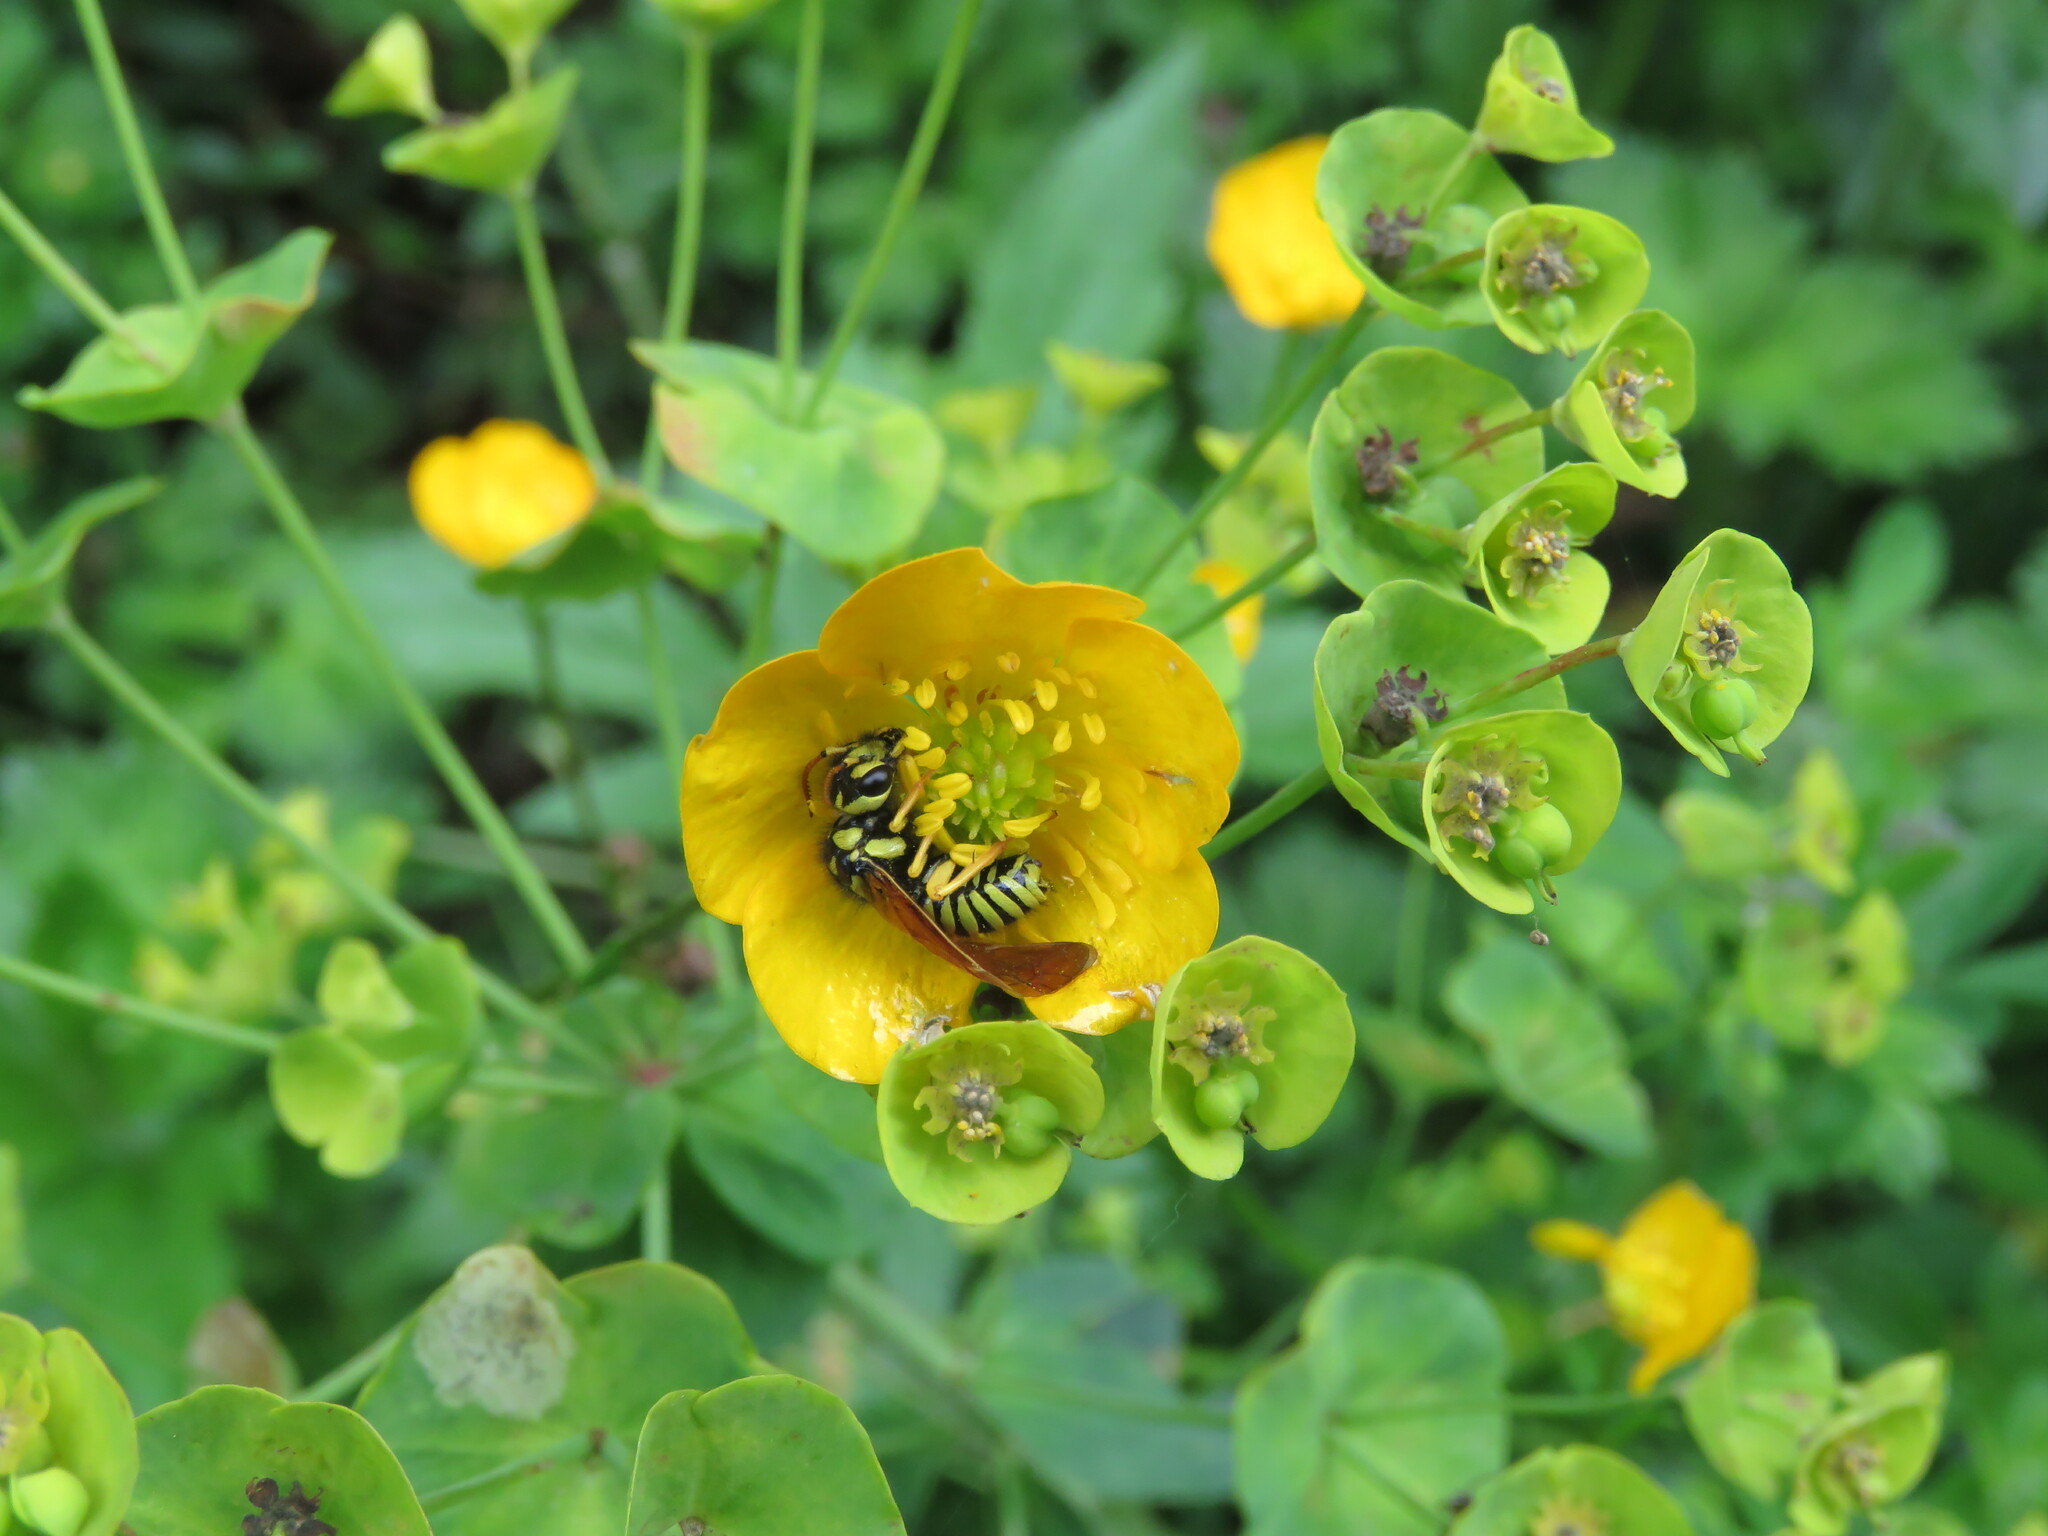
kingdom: Animalia
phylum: Arthropoda
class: Insecta
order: Hymenoptera
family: Megalodontesidae
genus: Megalodontes
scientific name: Megalodontes capitalatus
